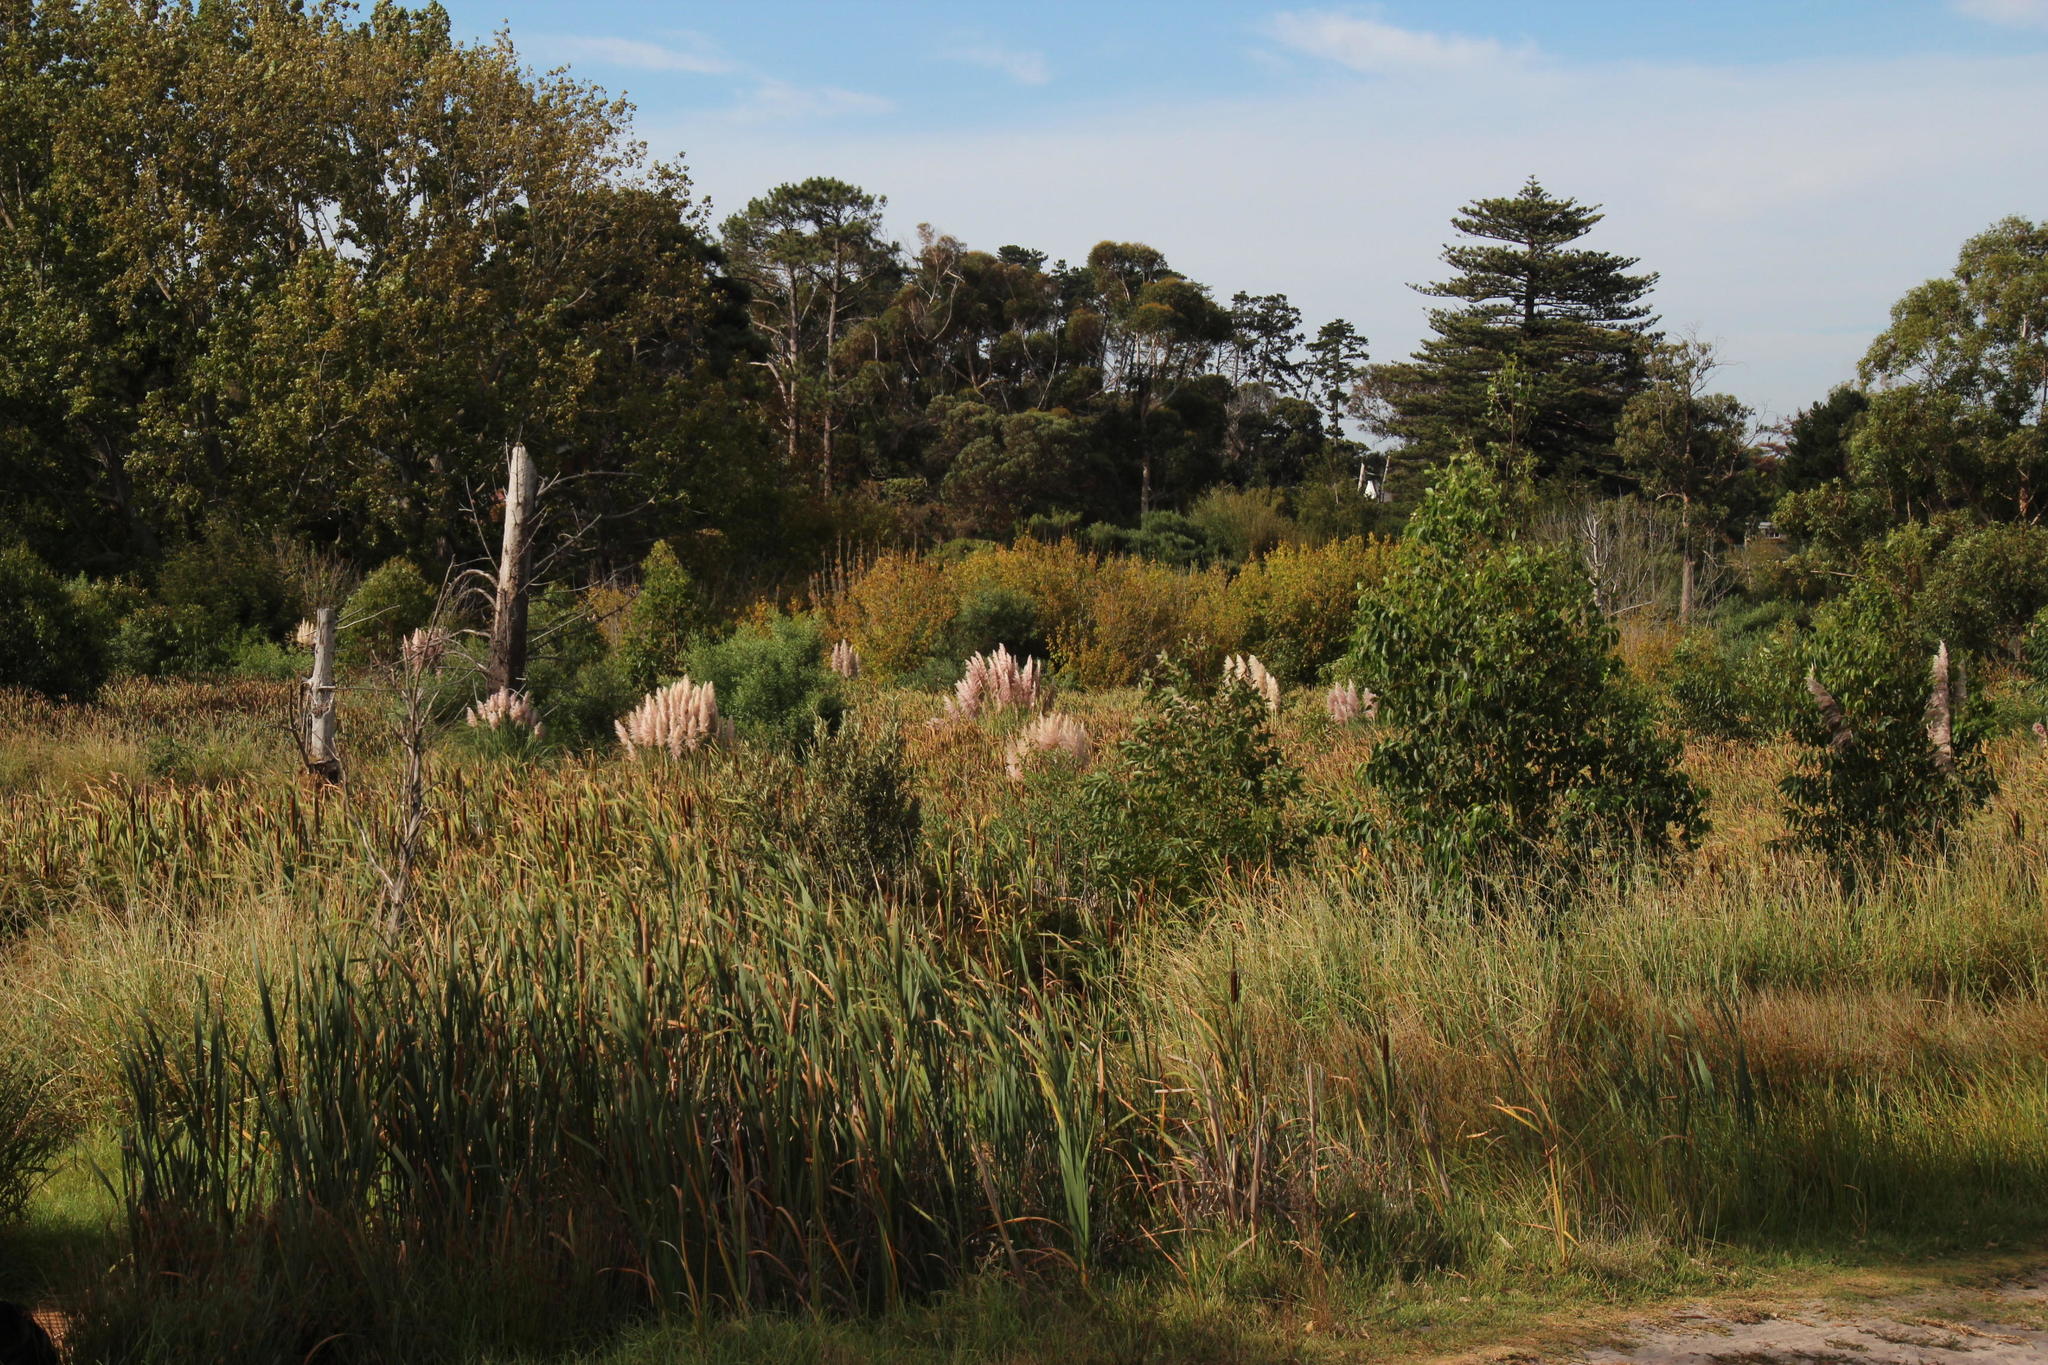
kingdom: Plantae
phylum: Tracheophyta
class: Liliopsida
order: Poales
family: Poaceae
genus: Cortaderia
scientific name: Cortaderia selloana
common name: Uruguayan pampas grass
